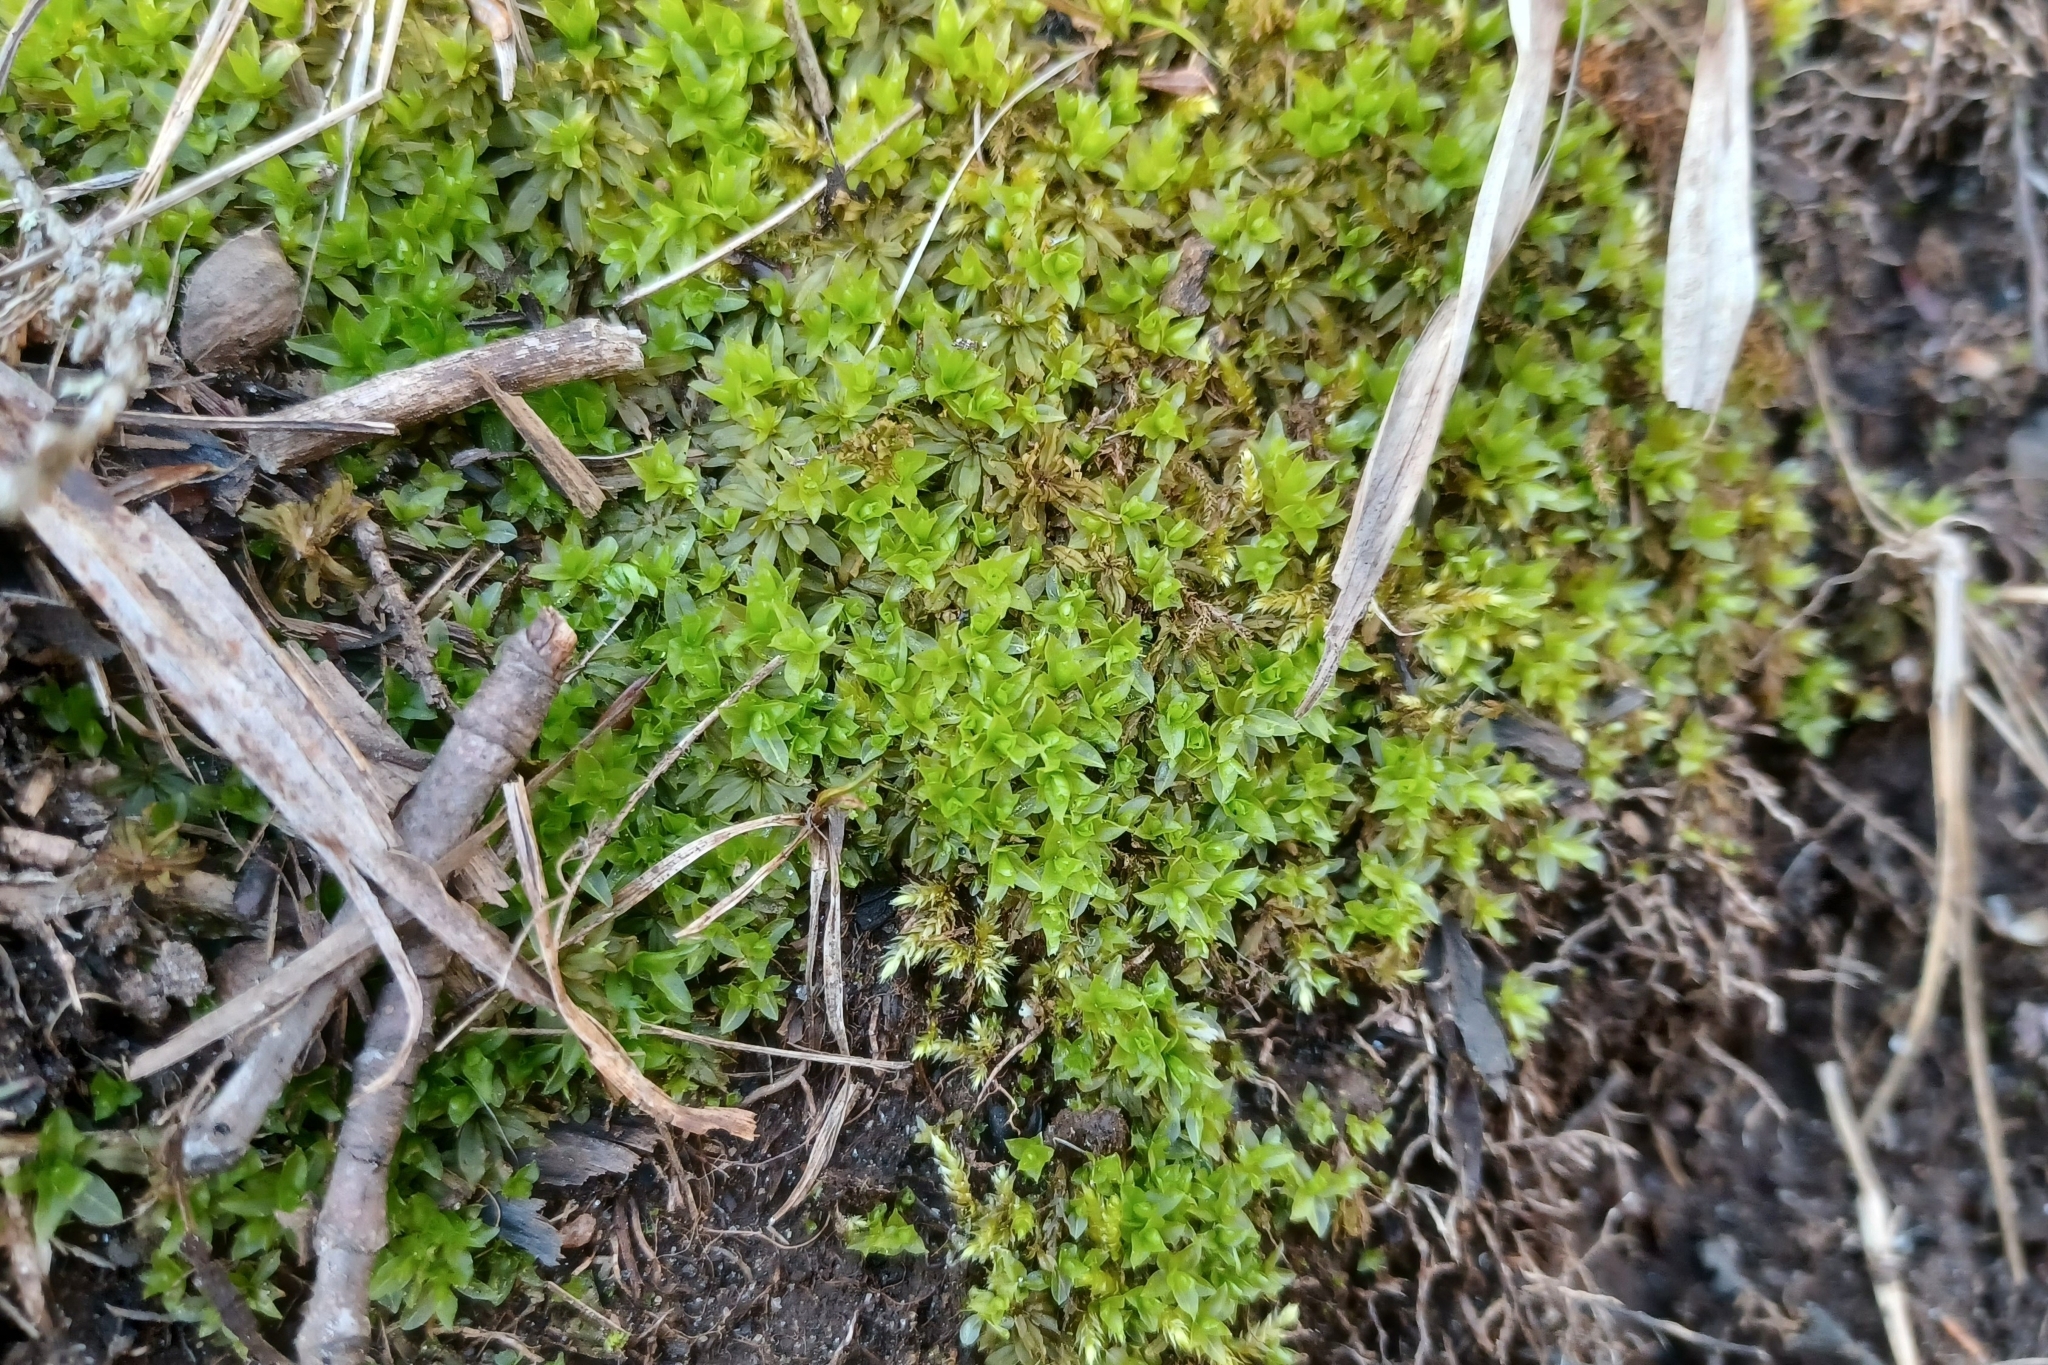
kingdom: Plantae
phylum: Bryophyta
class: Polytrichopsida
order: Polytrichales
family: Polytrichaceae
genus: Atrichum
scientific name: Atrichum crispum
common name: Fountain smoothcap
